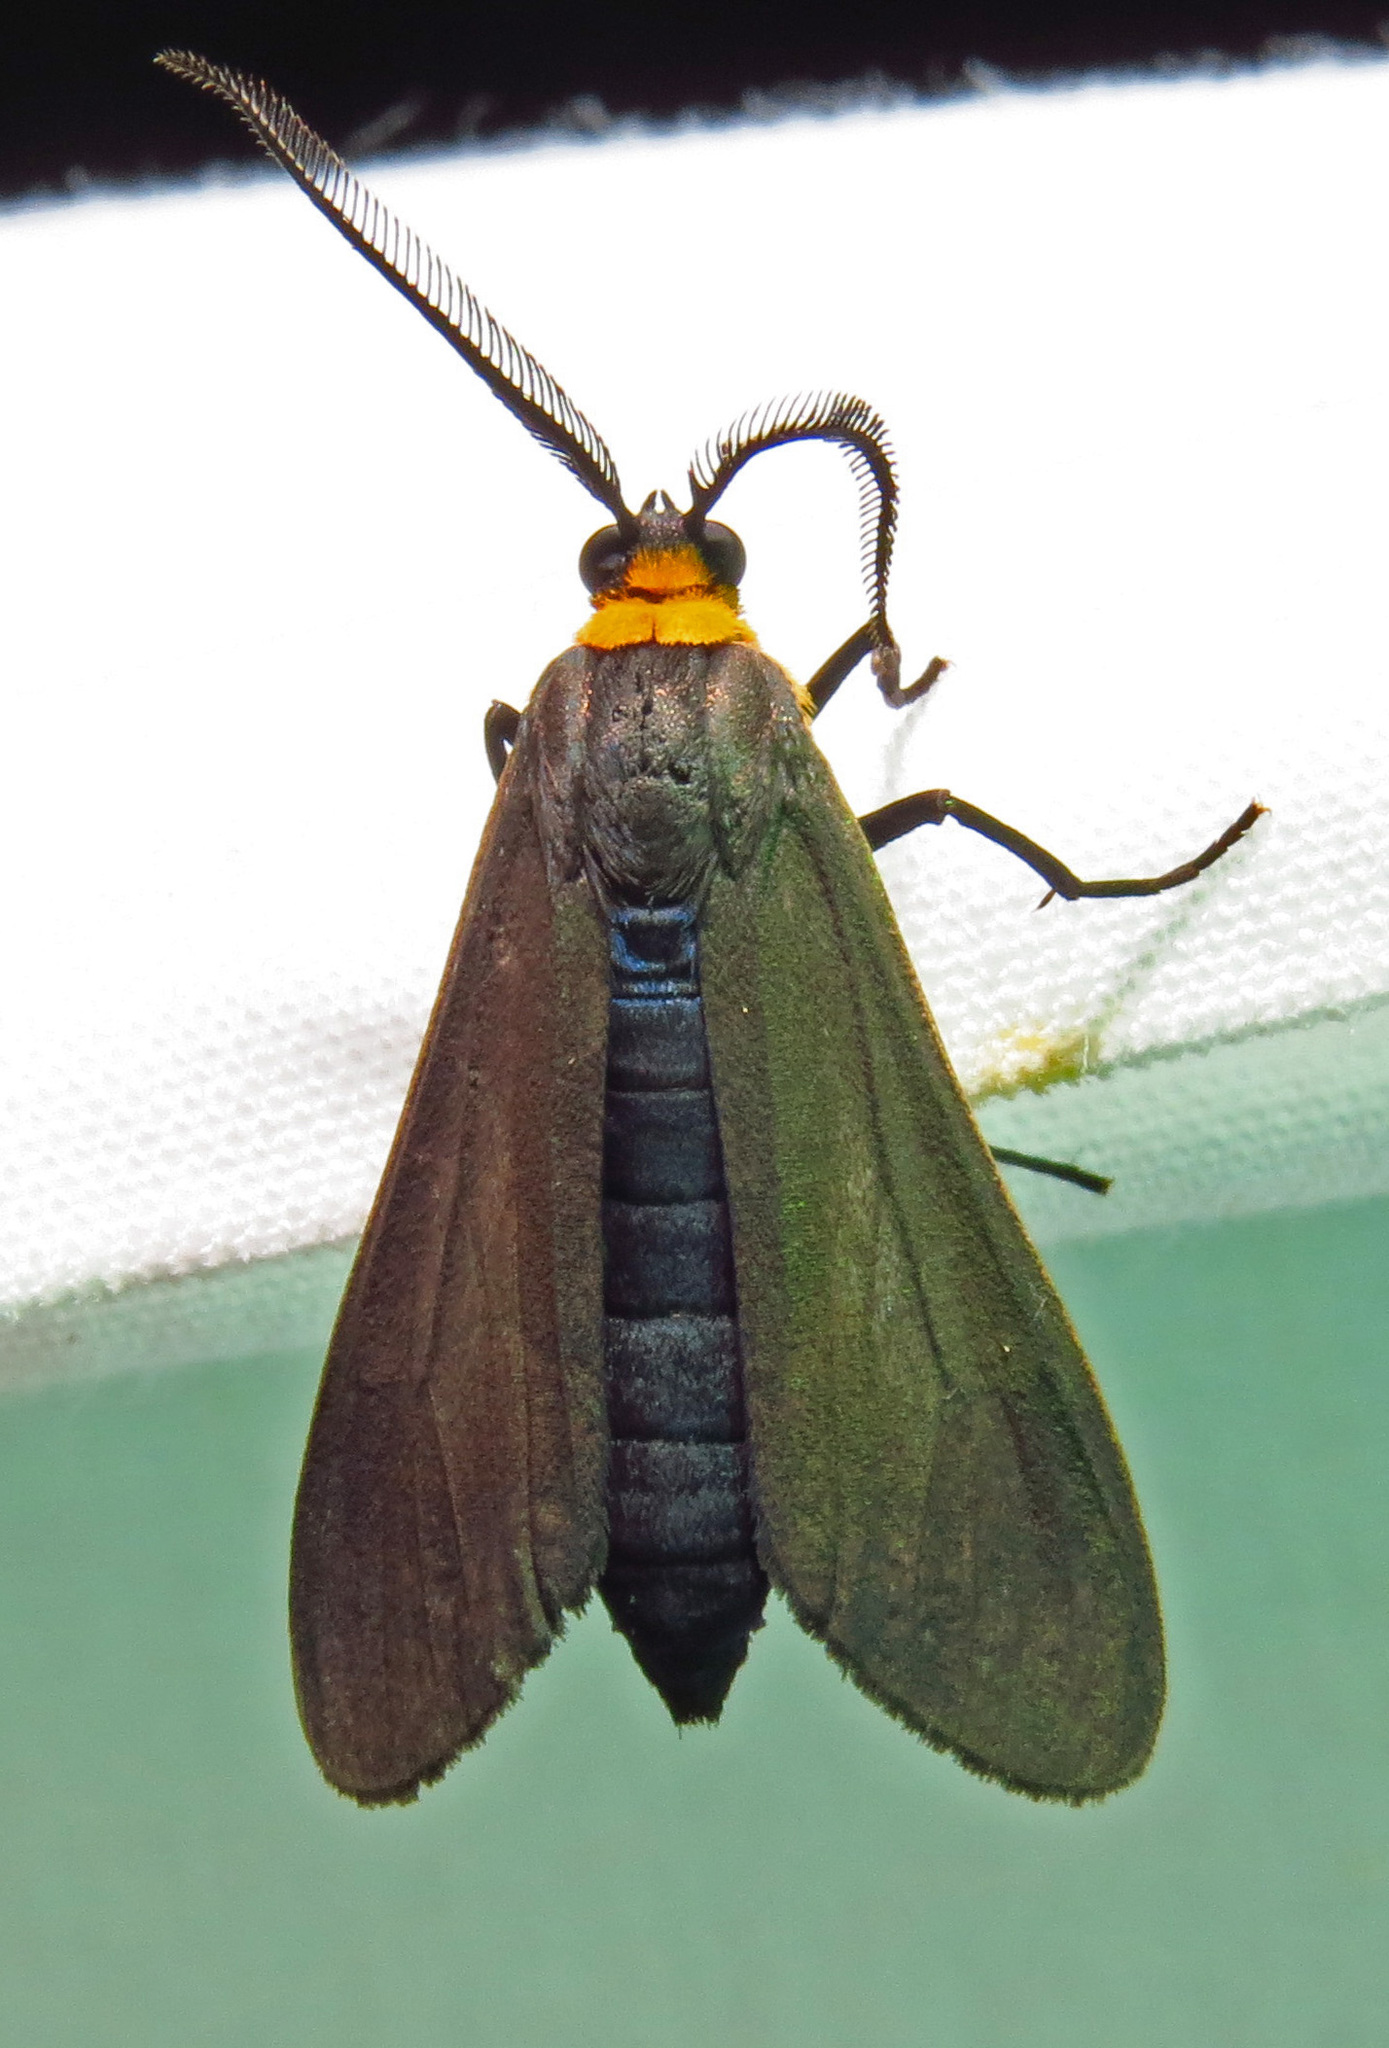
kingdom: Animalia
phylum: Arthropoda
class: Insecta
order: Lepidoptera
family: Erebidae
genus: Cisseps
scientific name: Cisseps fulvicollis
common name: Yellow-collared scape moth
